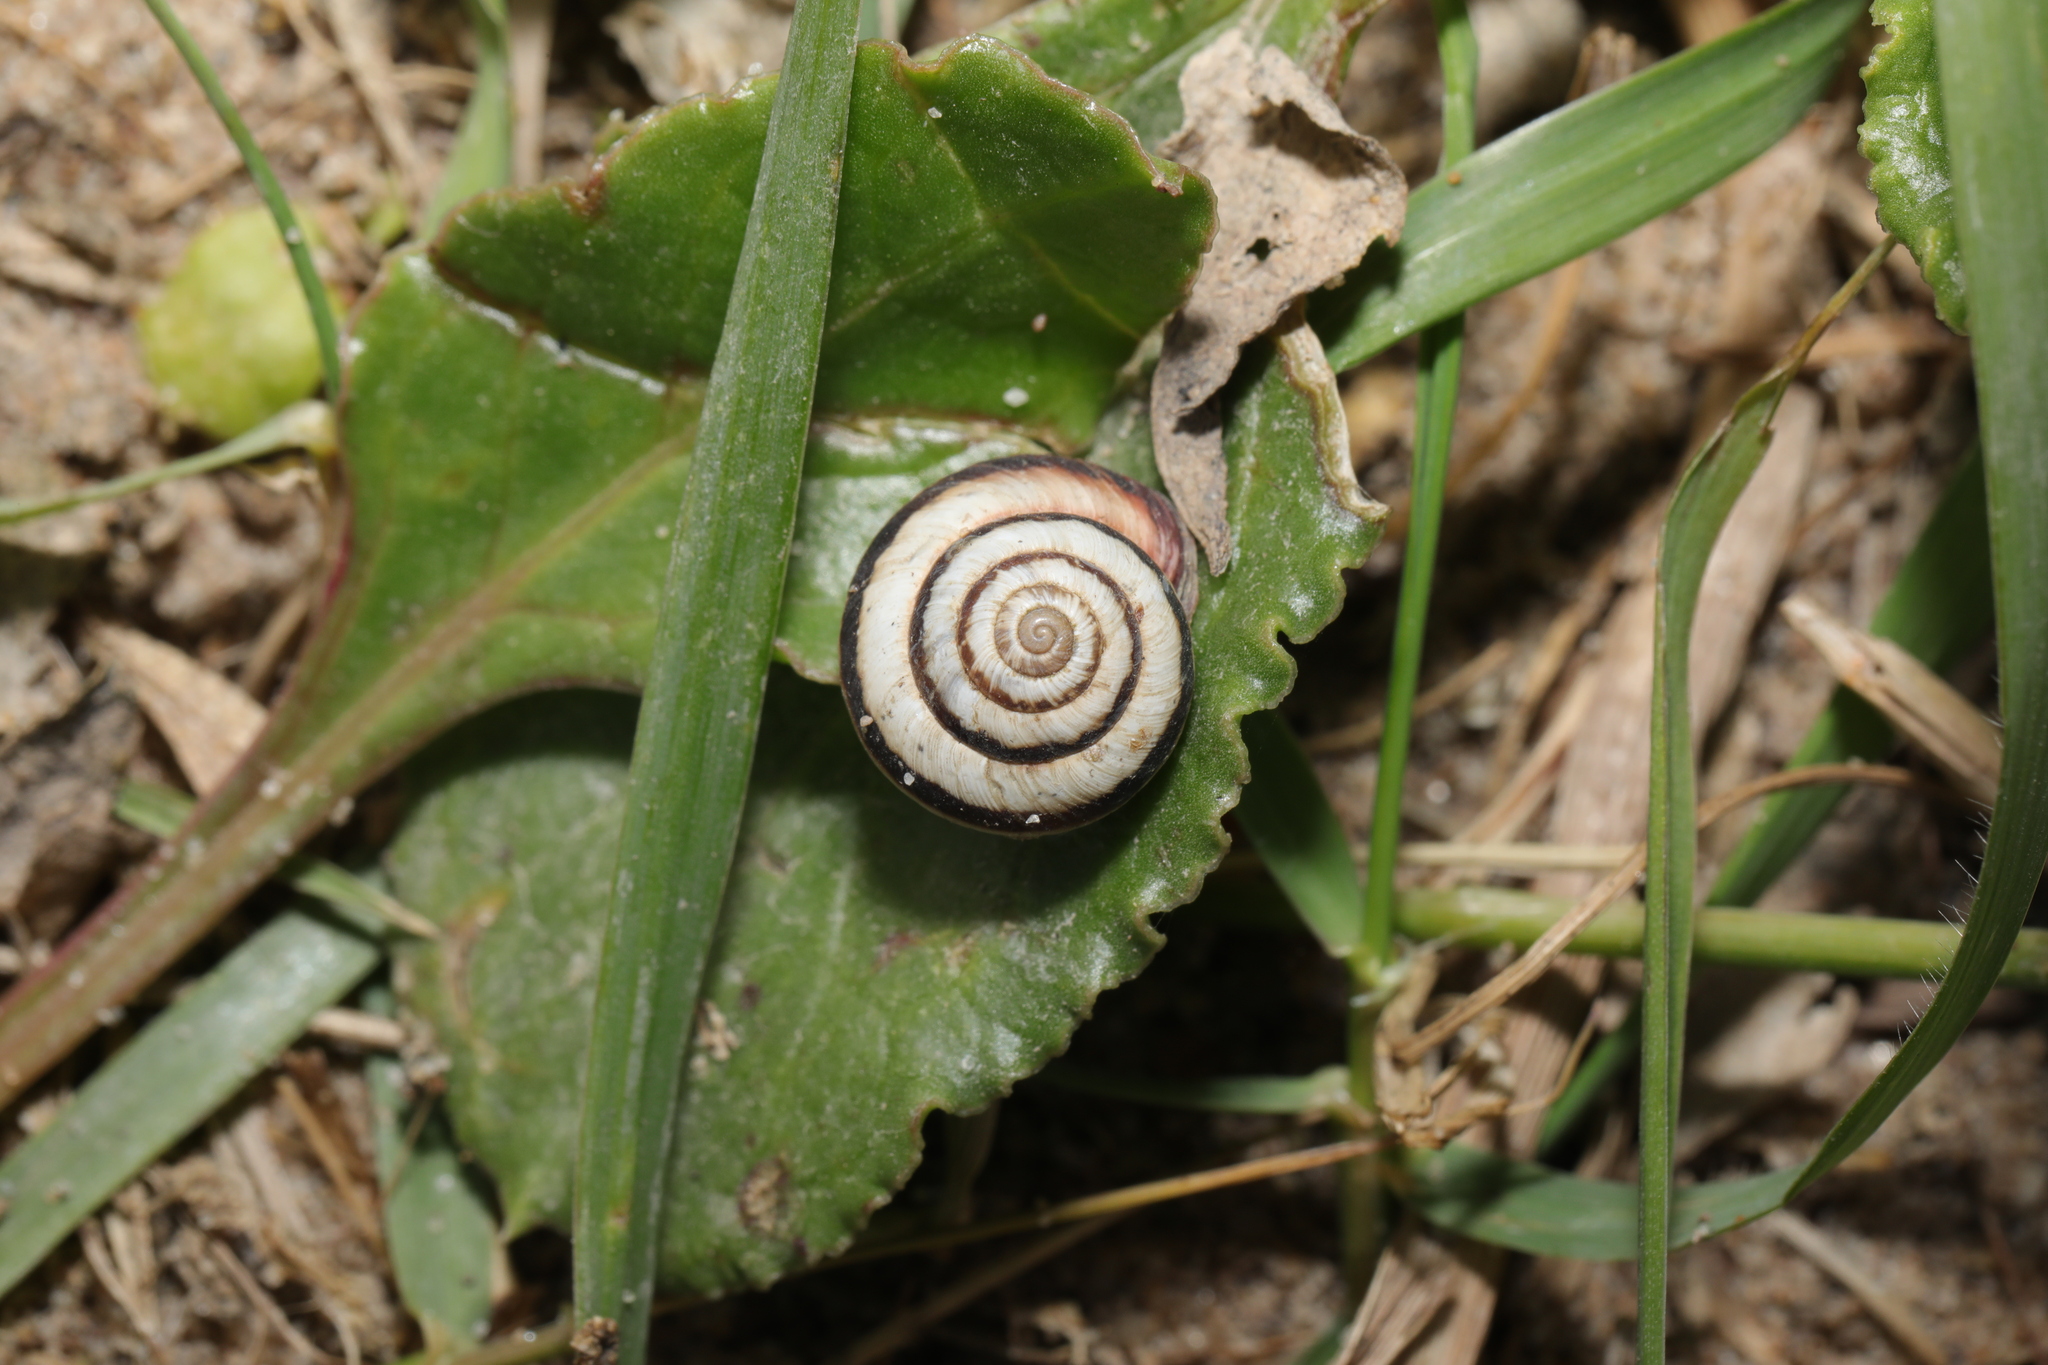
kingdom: Animalia
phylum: Mollusca
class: Gastropoda
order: Stylommatophora
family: Geomitridae
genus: Cernuella
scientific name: Cernuella virgata
